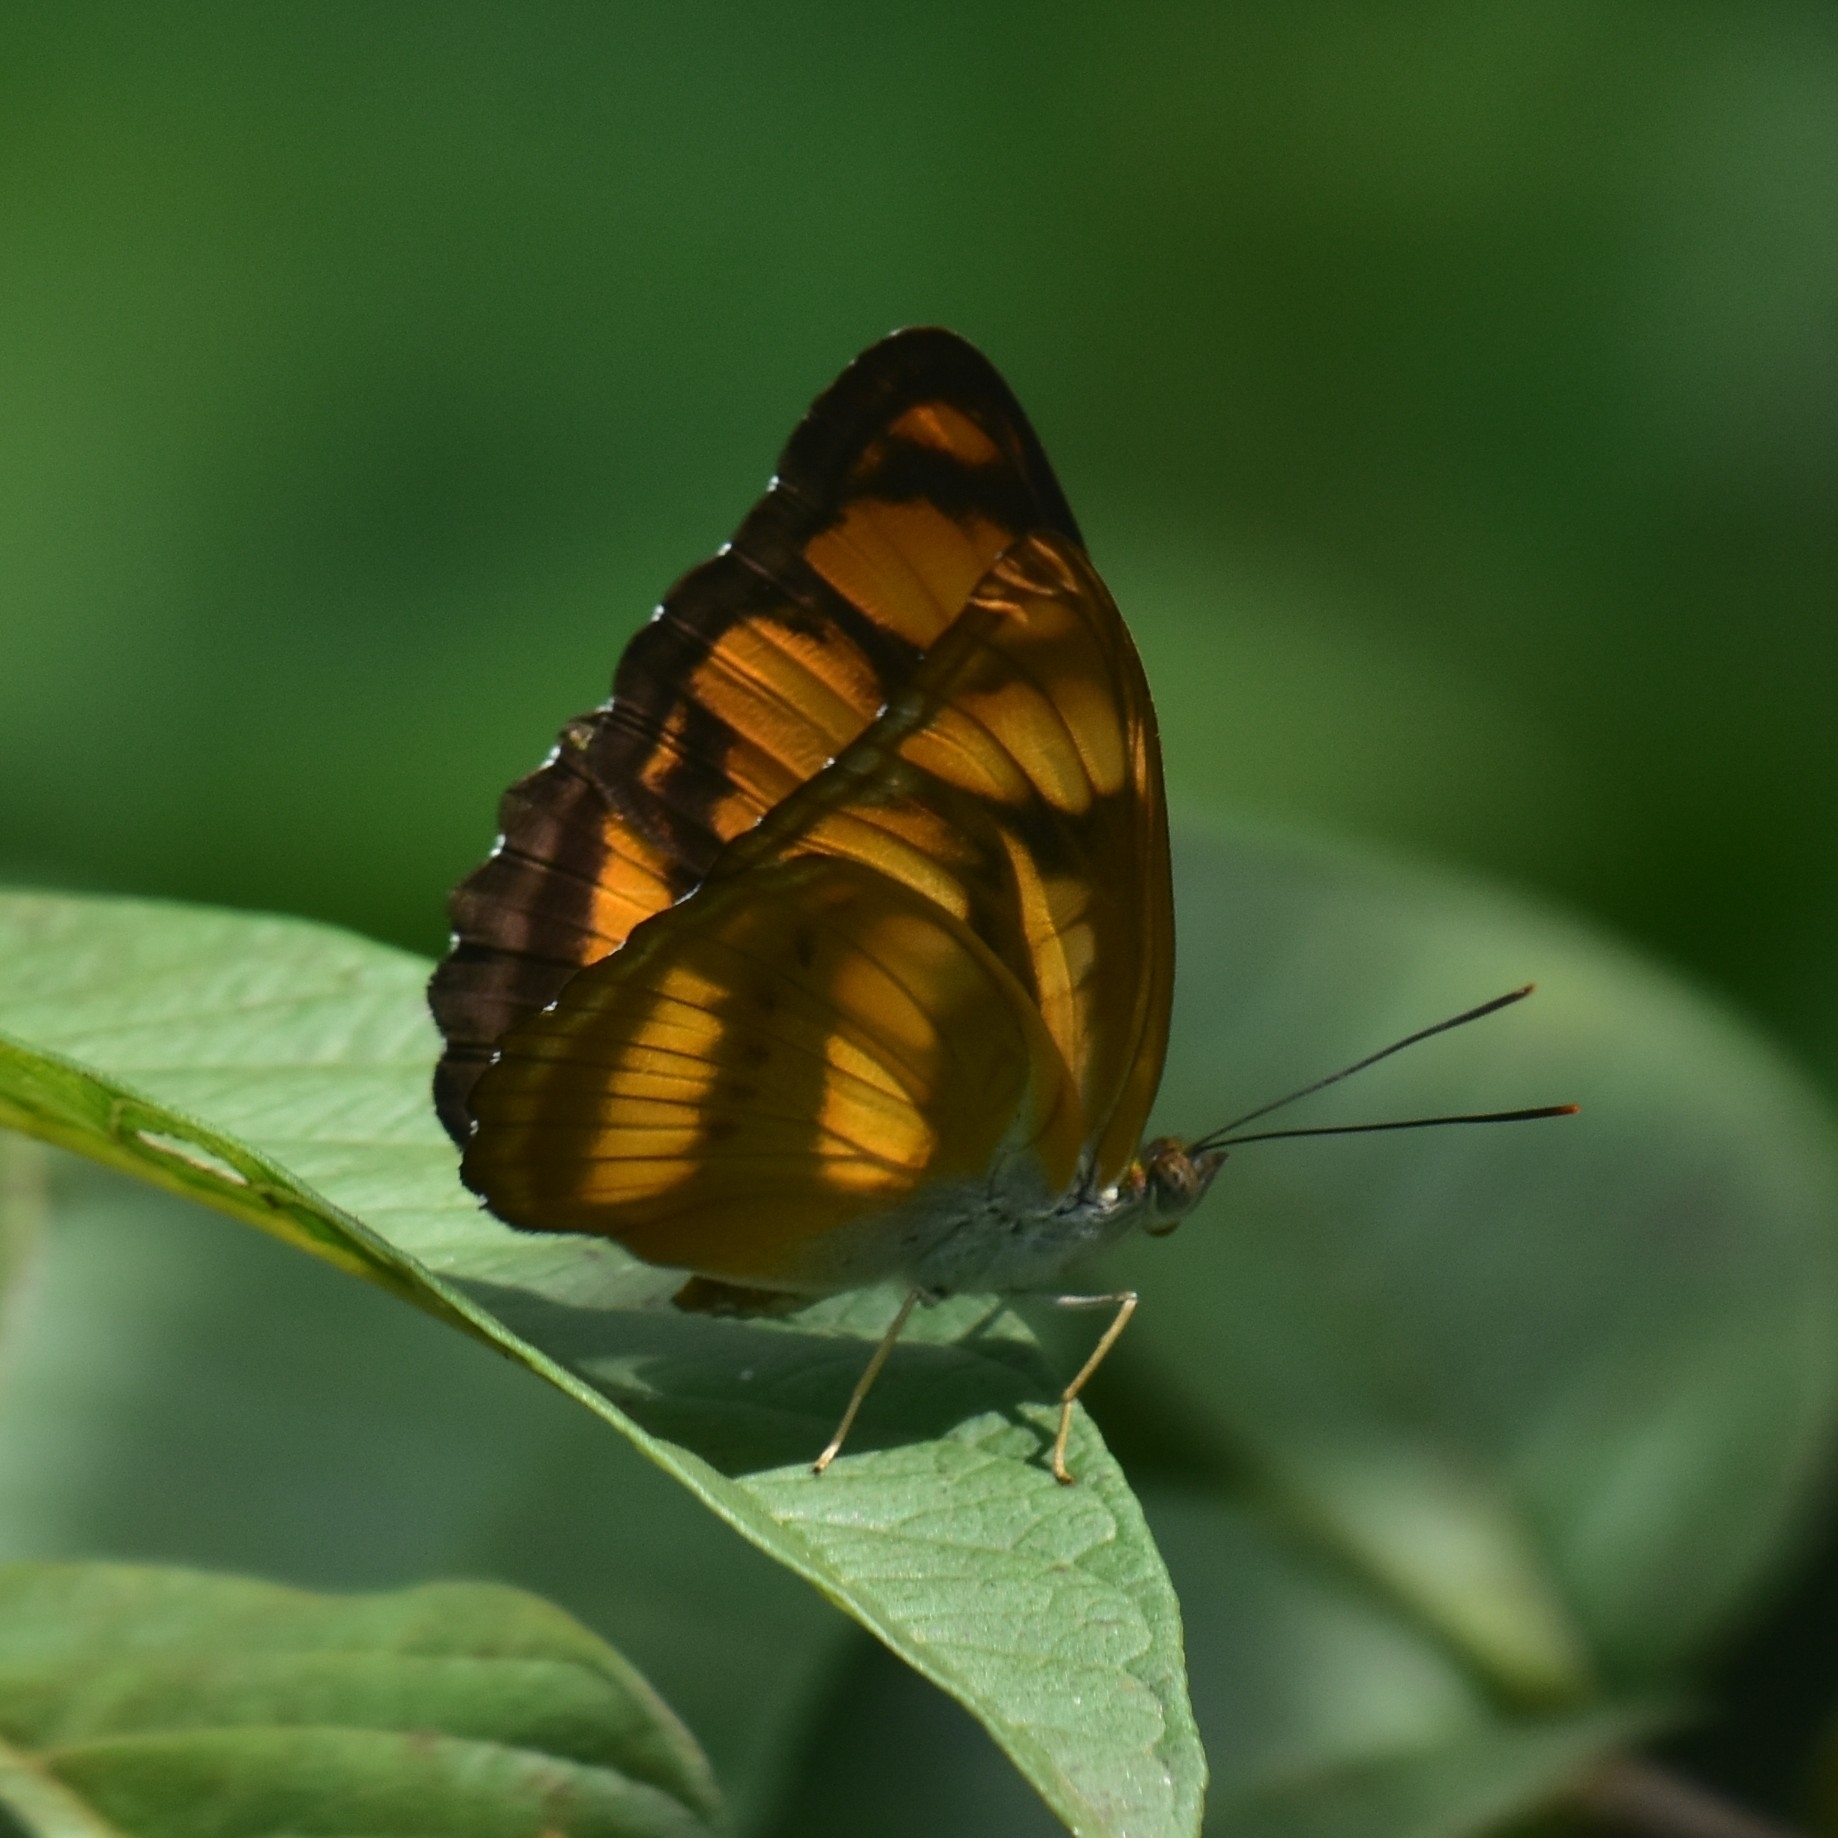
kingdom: Animalia
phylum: Arthropoda
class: Insecta
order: Lepidoptera
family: Nymphalidae
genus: Parathyma
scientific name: Parathyma nefte
